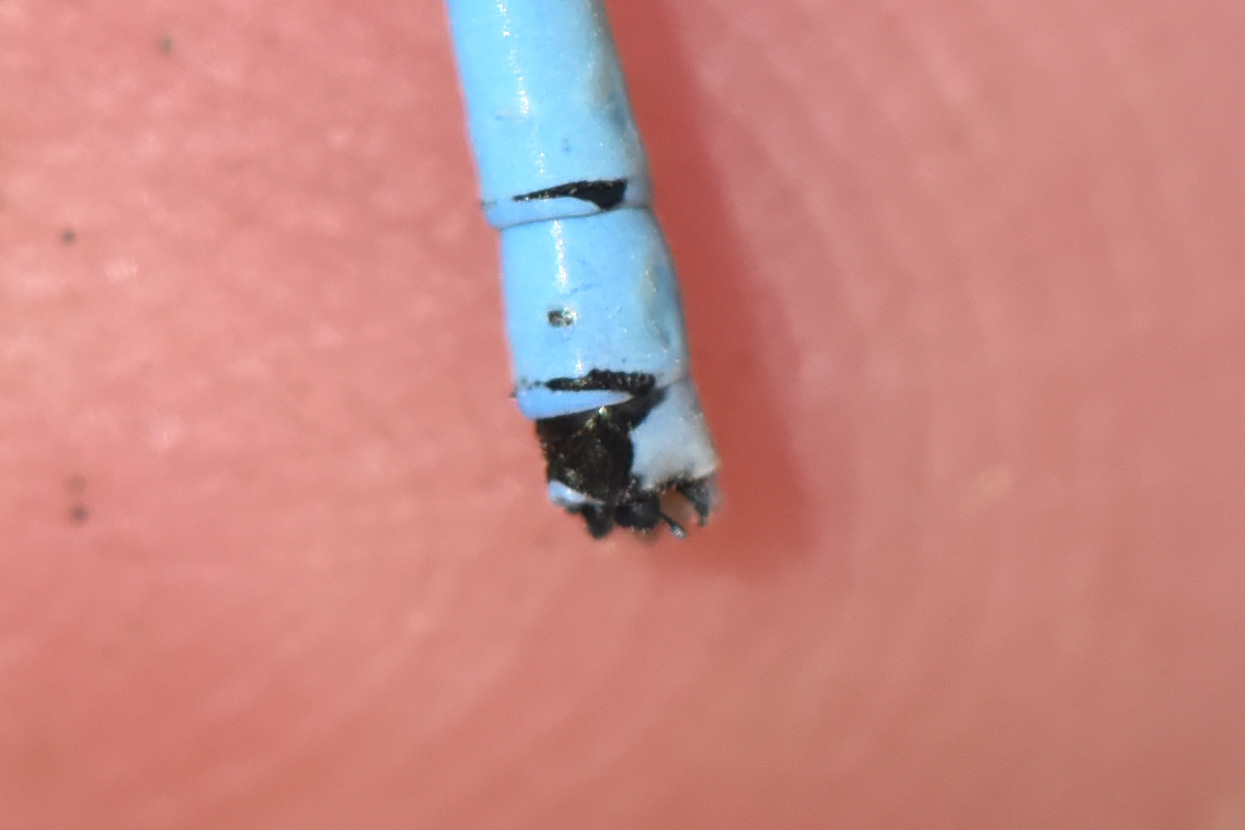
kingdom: Animalia
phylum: Arthropoda
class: Insecta
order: Odonata
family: Coenagrionidae
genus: Coenagrion
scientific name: Coenagrion resolutum
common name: Taiga bluet
